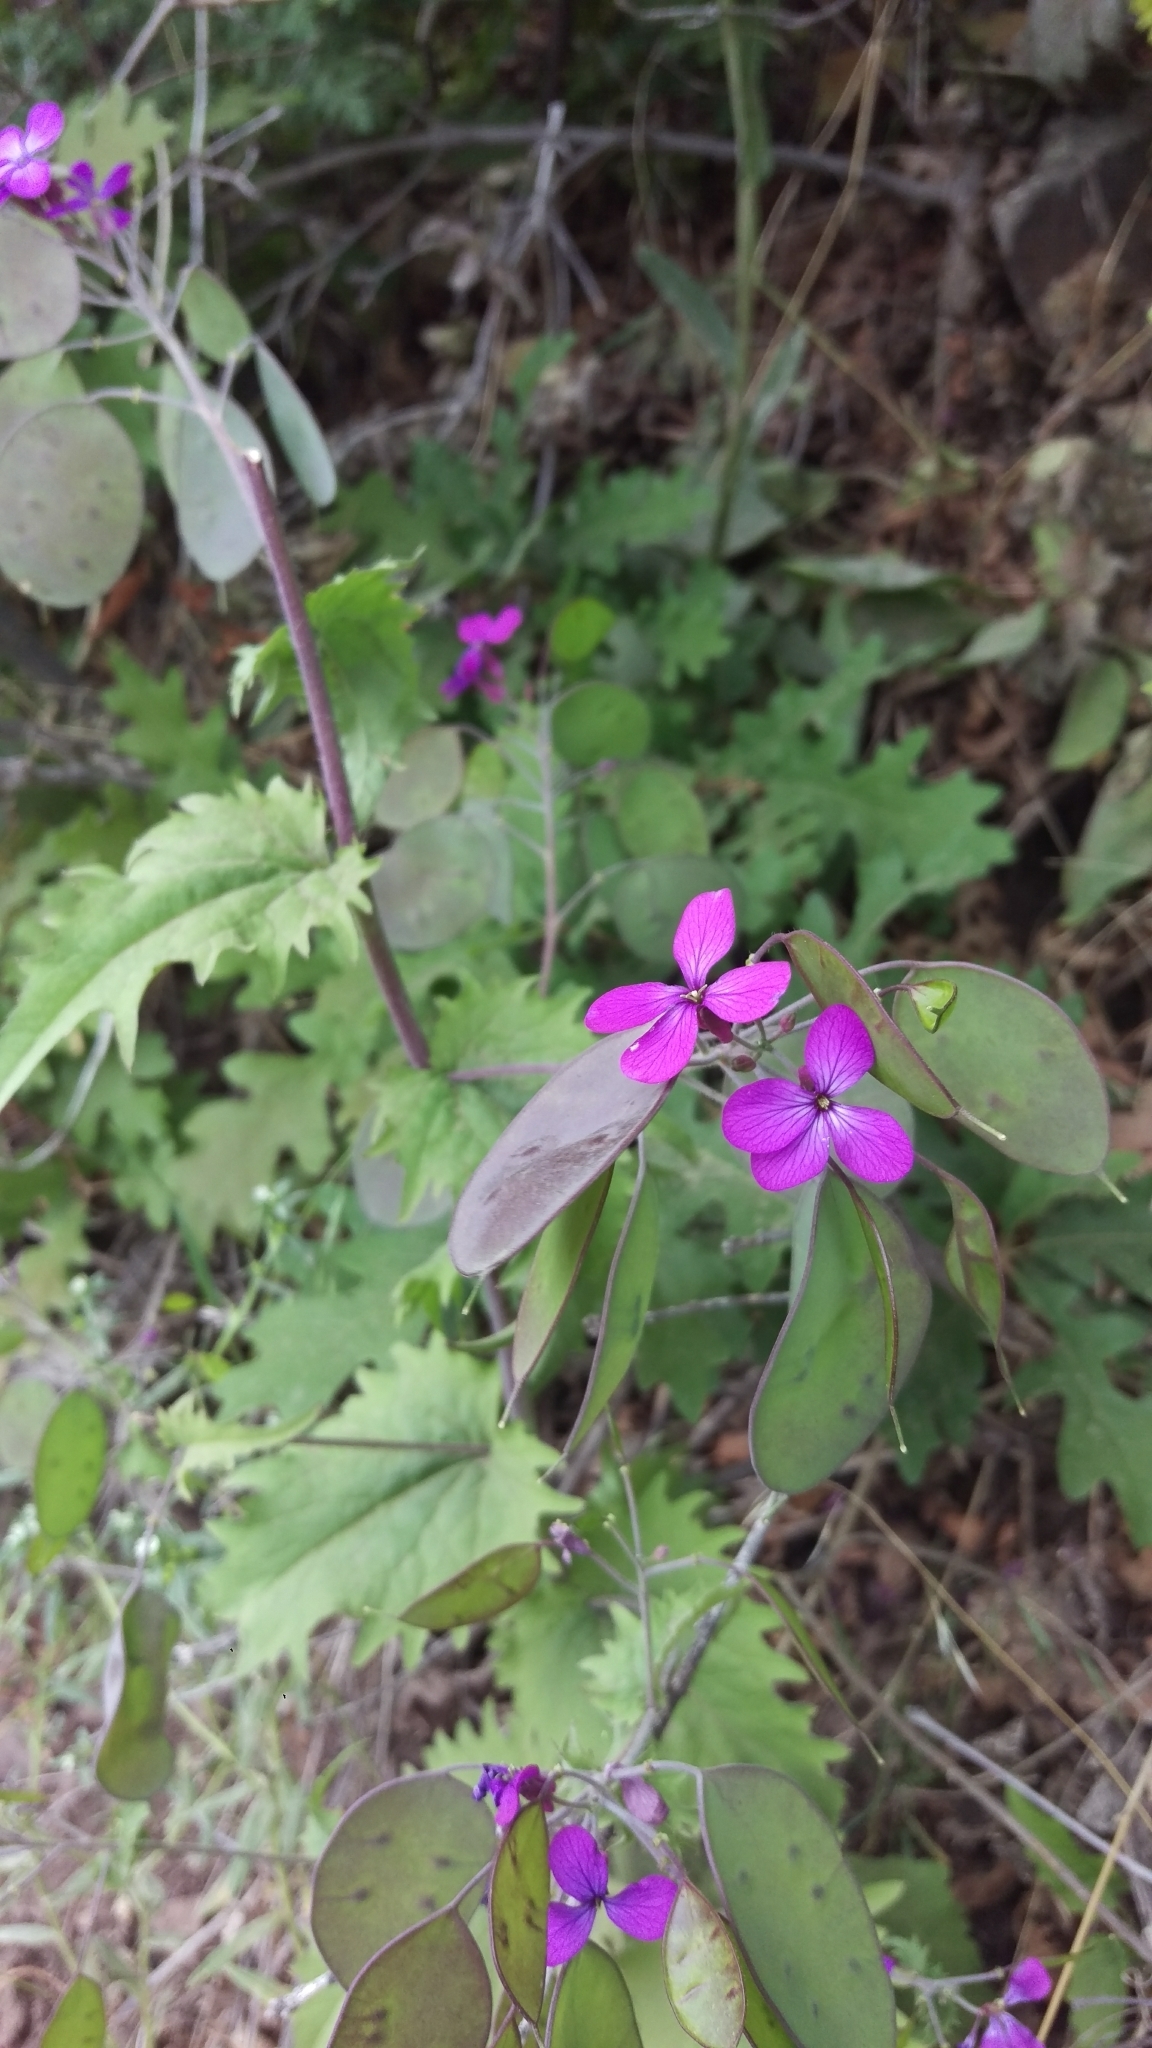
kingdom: Plantae
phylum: Tracheophyta
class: Magnoliopsida
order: Brassicales
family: Brassicaceae
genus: Lunaria
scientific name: Lunaria annua
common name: Honesty
